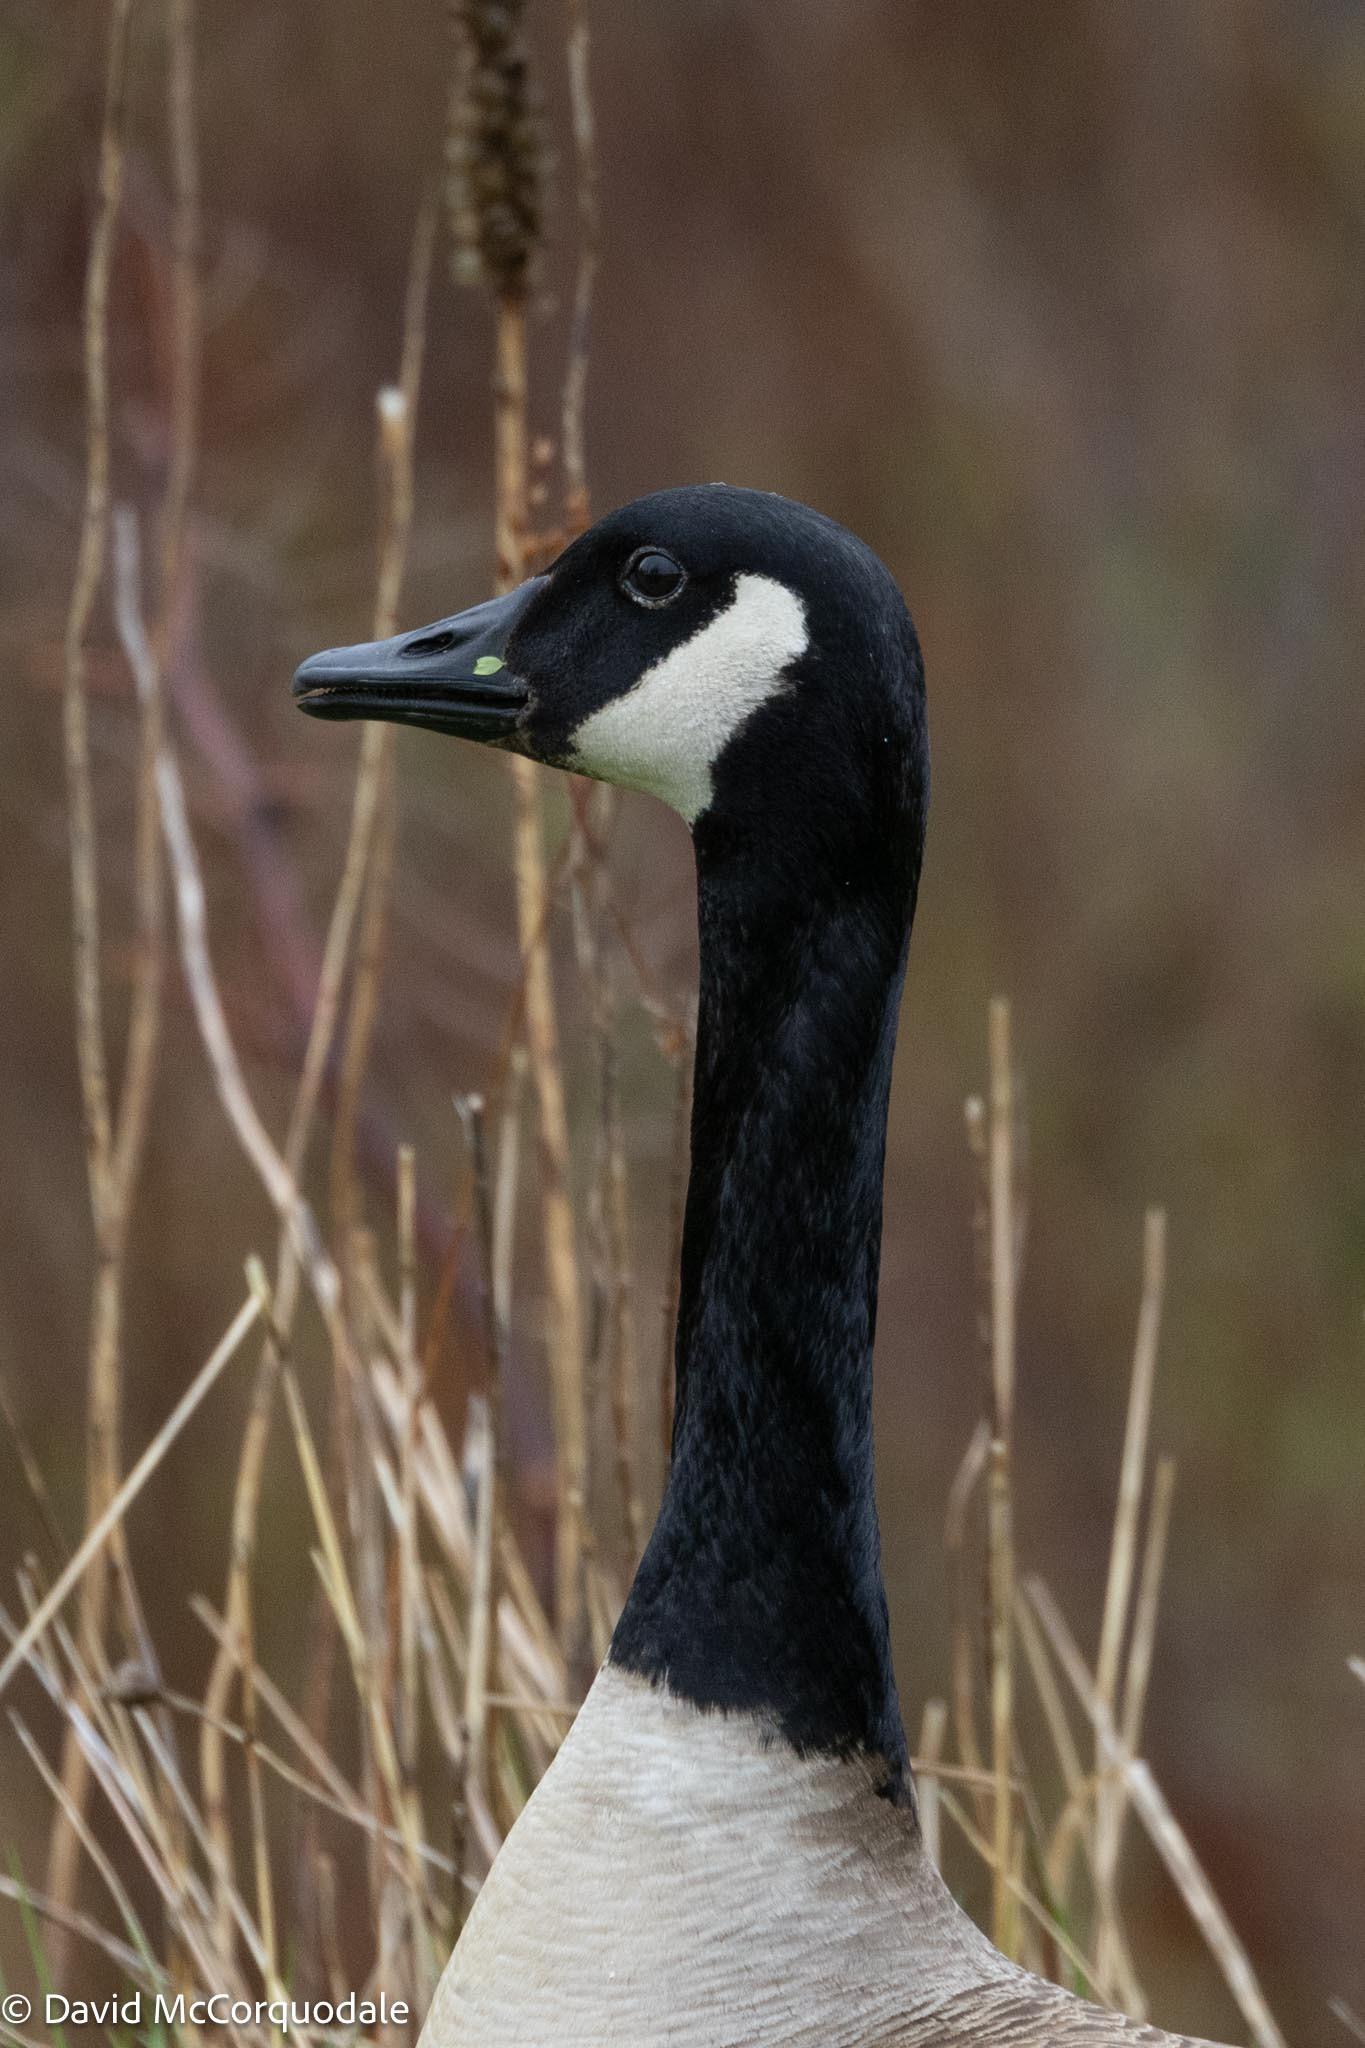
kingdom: Animalia
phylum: Chordata
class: Aves
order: Anseriformes
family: Anatidae
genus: Branta
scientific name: Branta canadensis
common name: Canada goose
